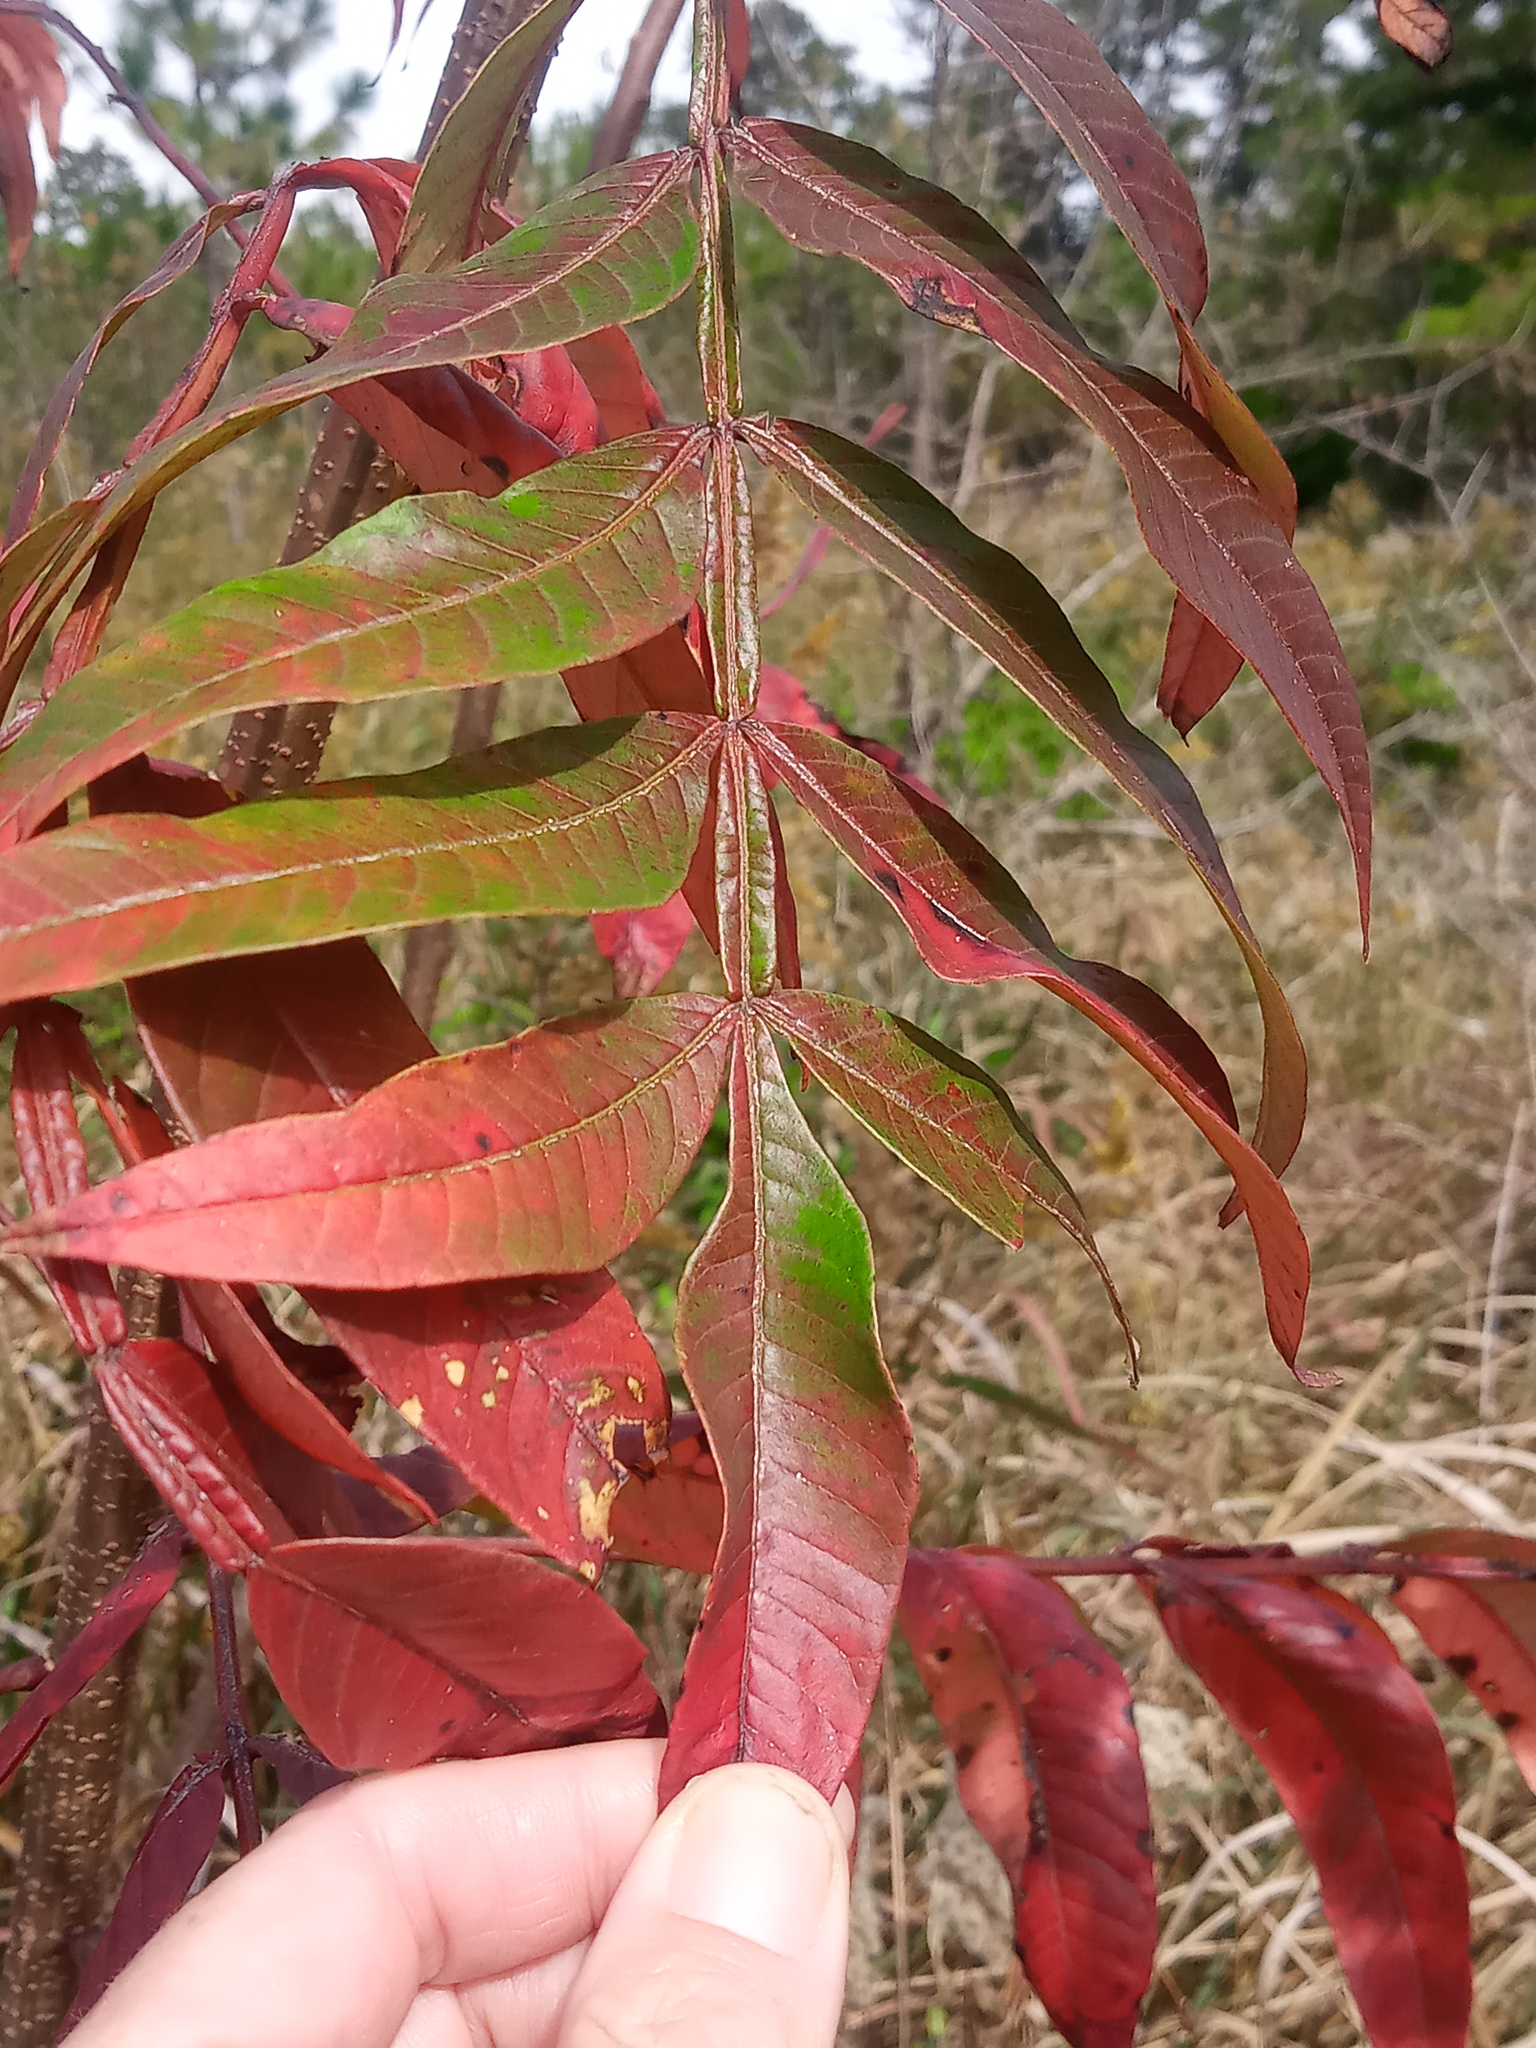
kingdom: Plantae
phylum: Tracheophyta
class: Magnoliopsida
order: Sapindales
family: Anacardiaceae
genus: Rhus
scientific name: Rhus copallina
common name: Shining sumac
